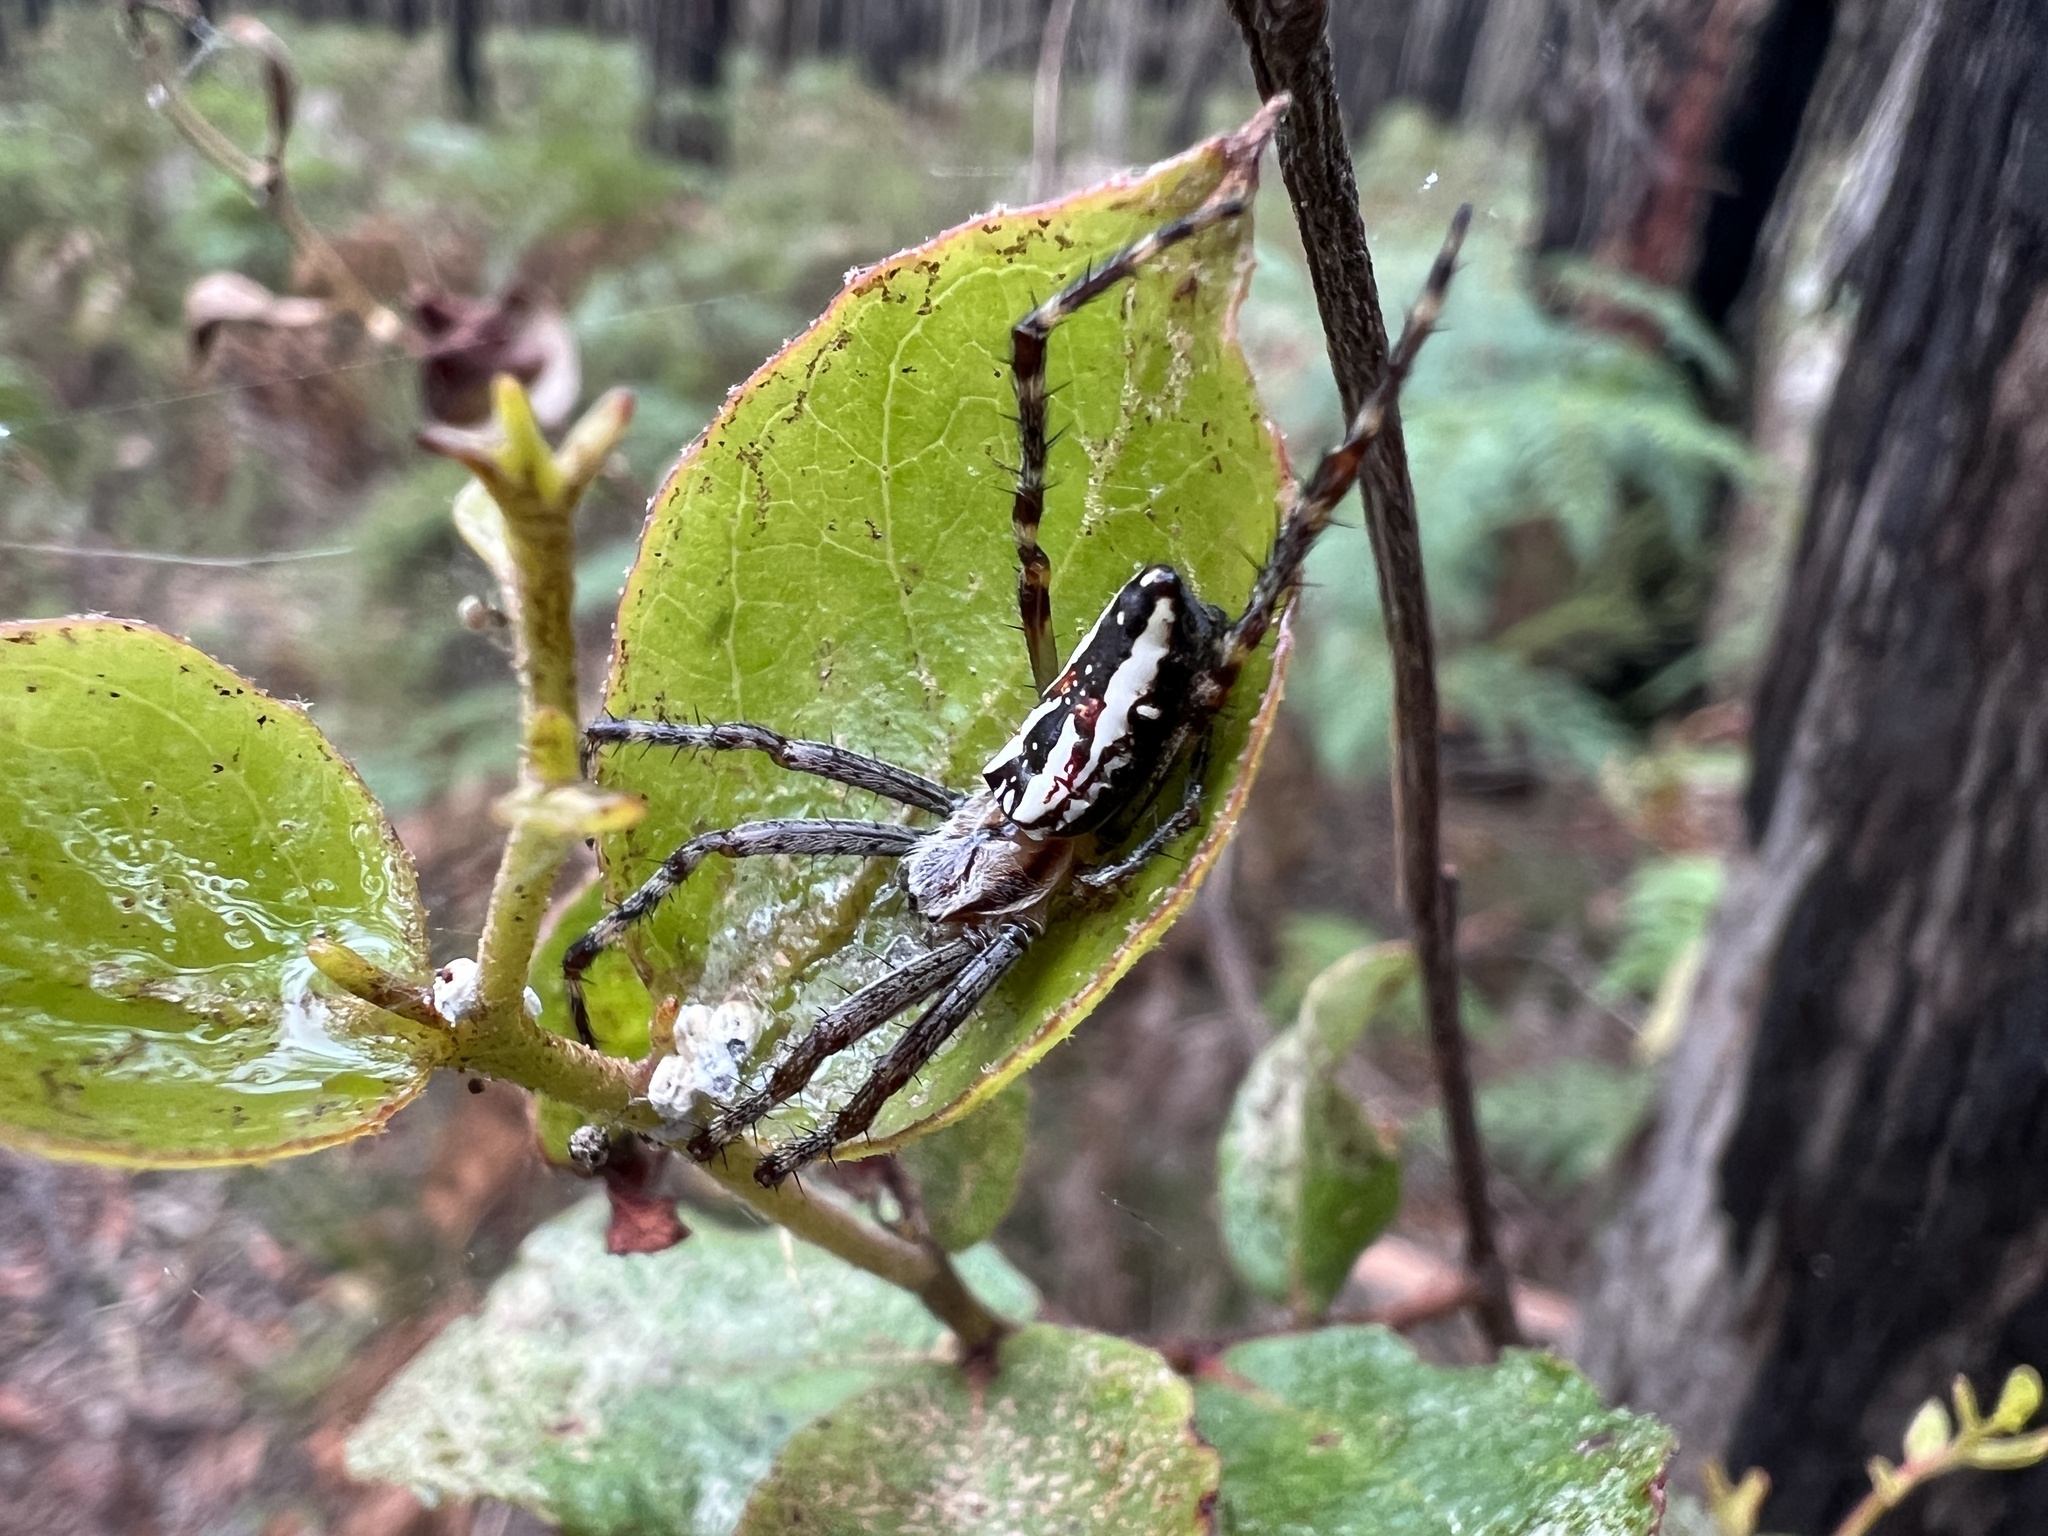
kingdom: Animalia
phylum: Arthropoda
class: Arachnida
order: Araneae
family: Araneidae
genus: Plebs
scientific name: Plebs bradleyi
